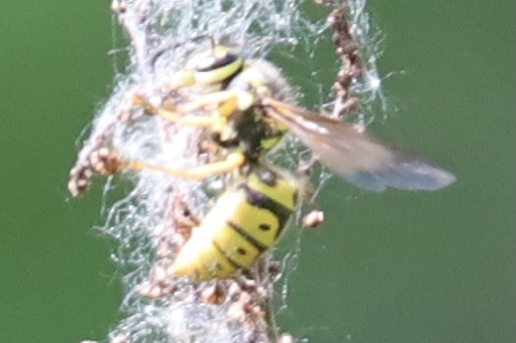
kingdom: Animalia
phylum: Arthropoda
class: Insecta
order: Hymenoptera
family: Vespidae
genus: Vespula
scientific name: Vespula pensylvanica
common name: Western yellowjacket
